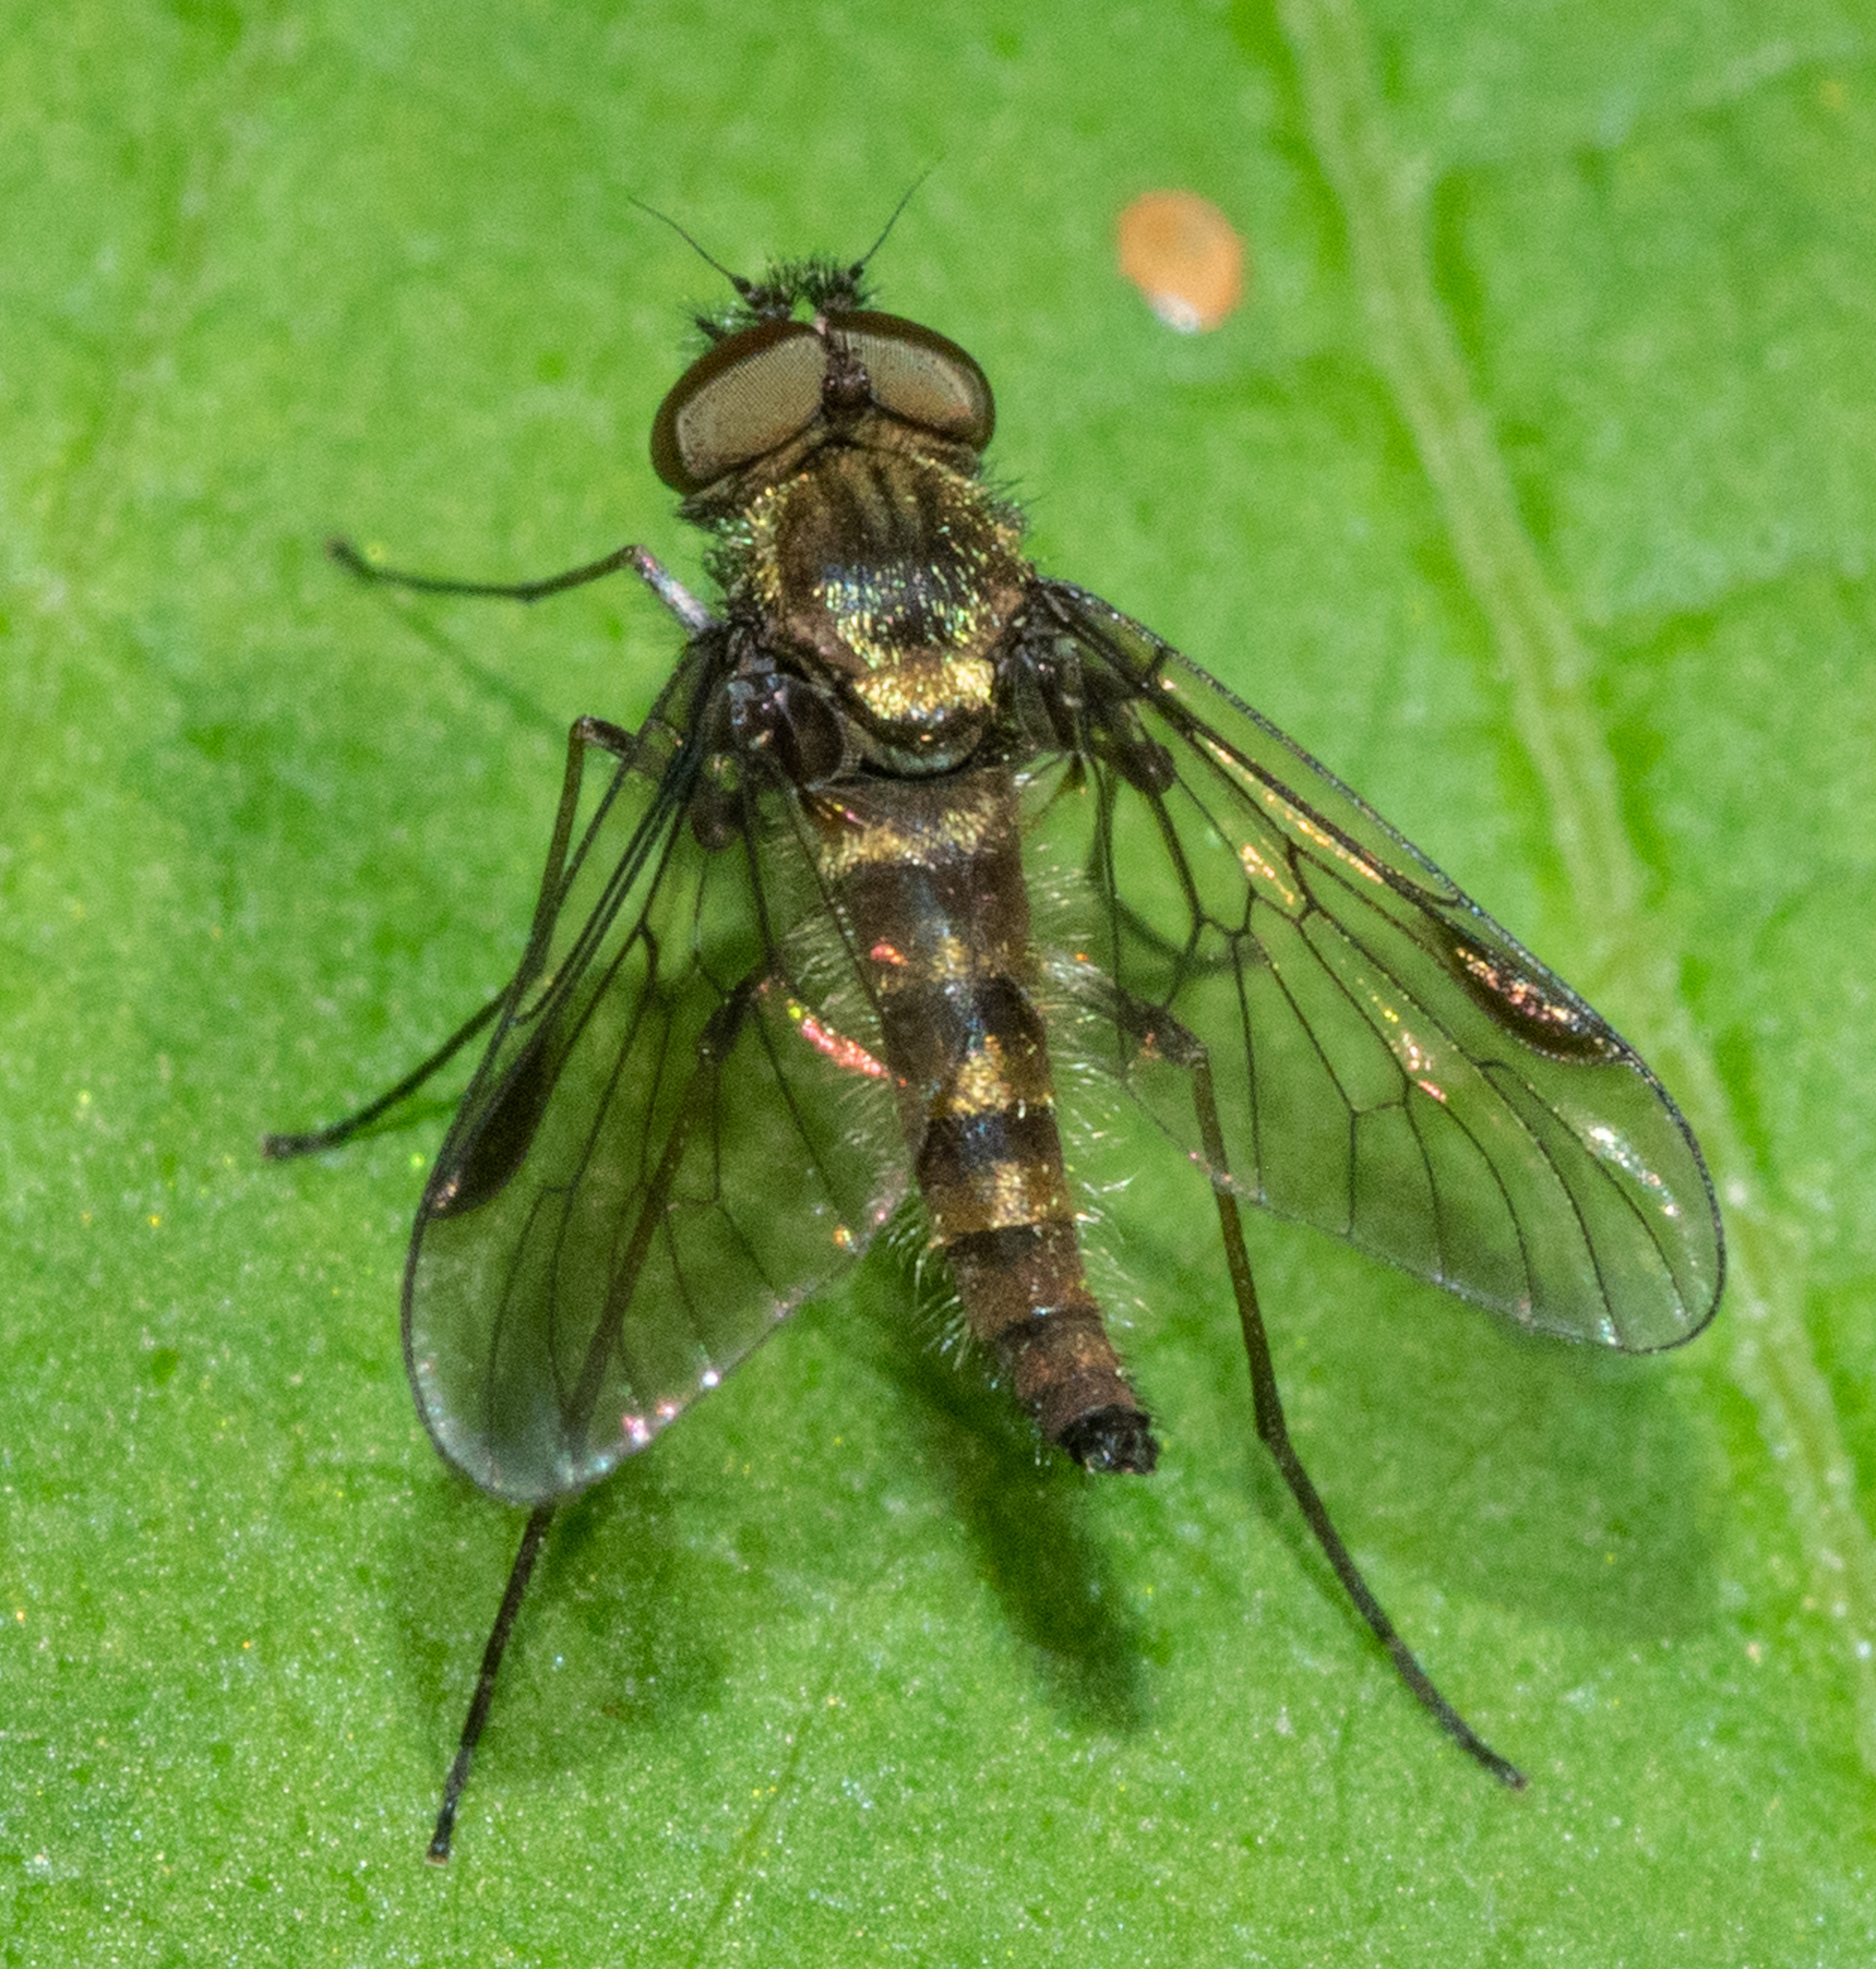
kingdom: Animalia
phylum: Arthropoda
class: Insecta
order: Diptera
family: Rhagionidae
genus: Chrysopilus
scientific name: Chrysopilus tomentosus
